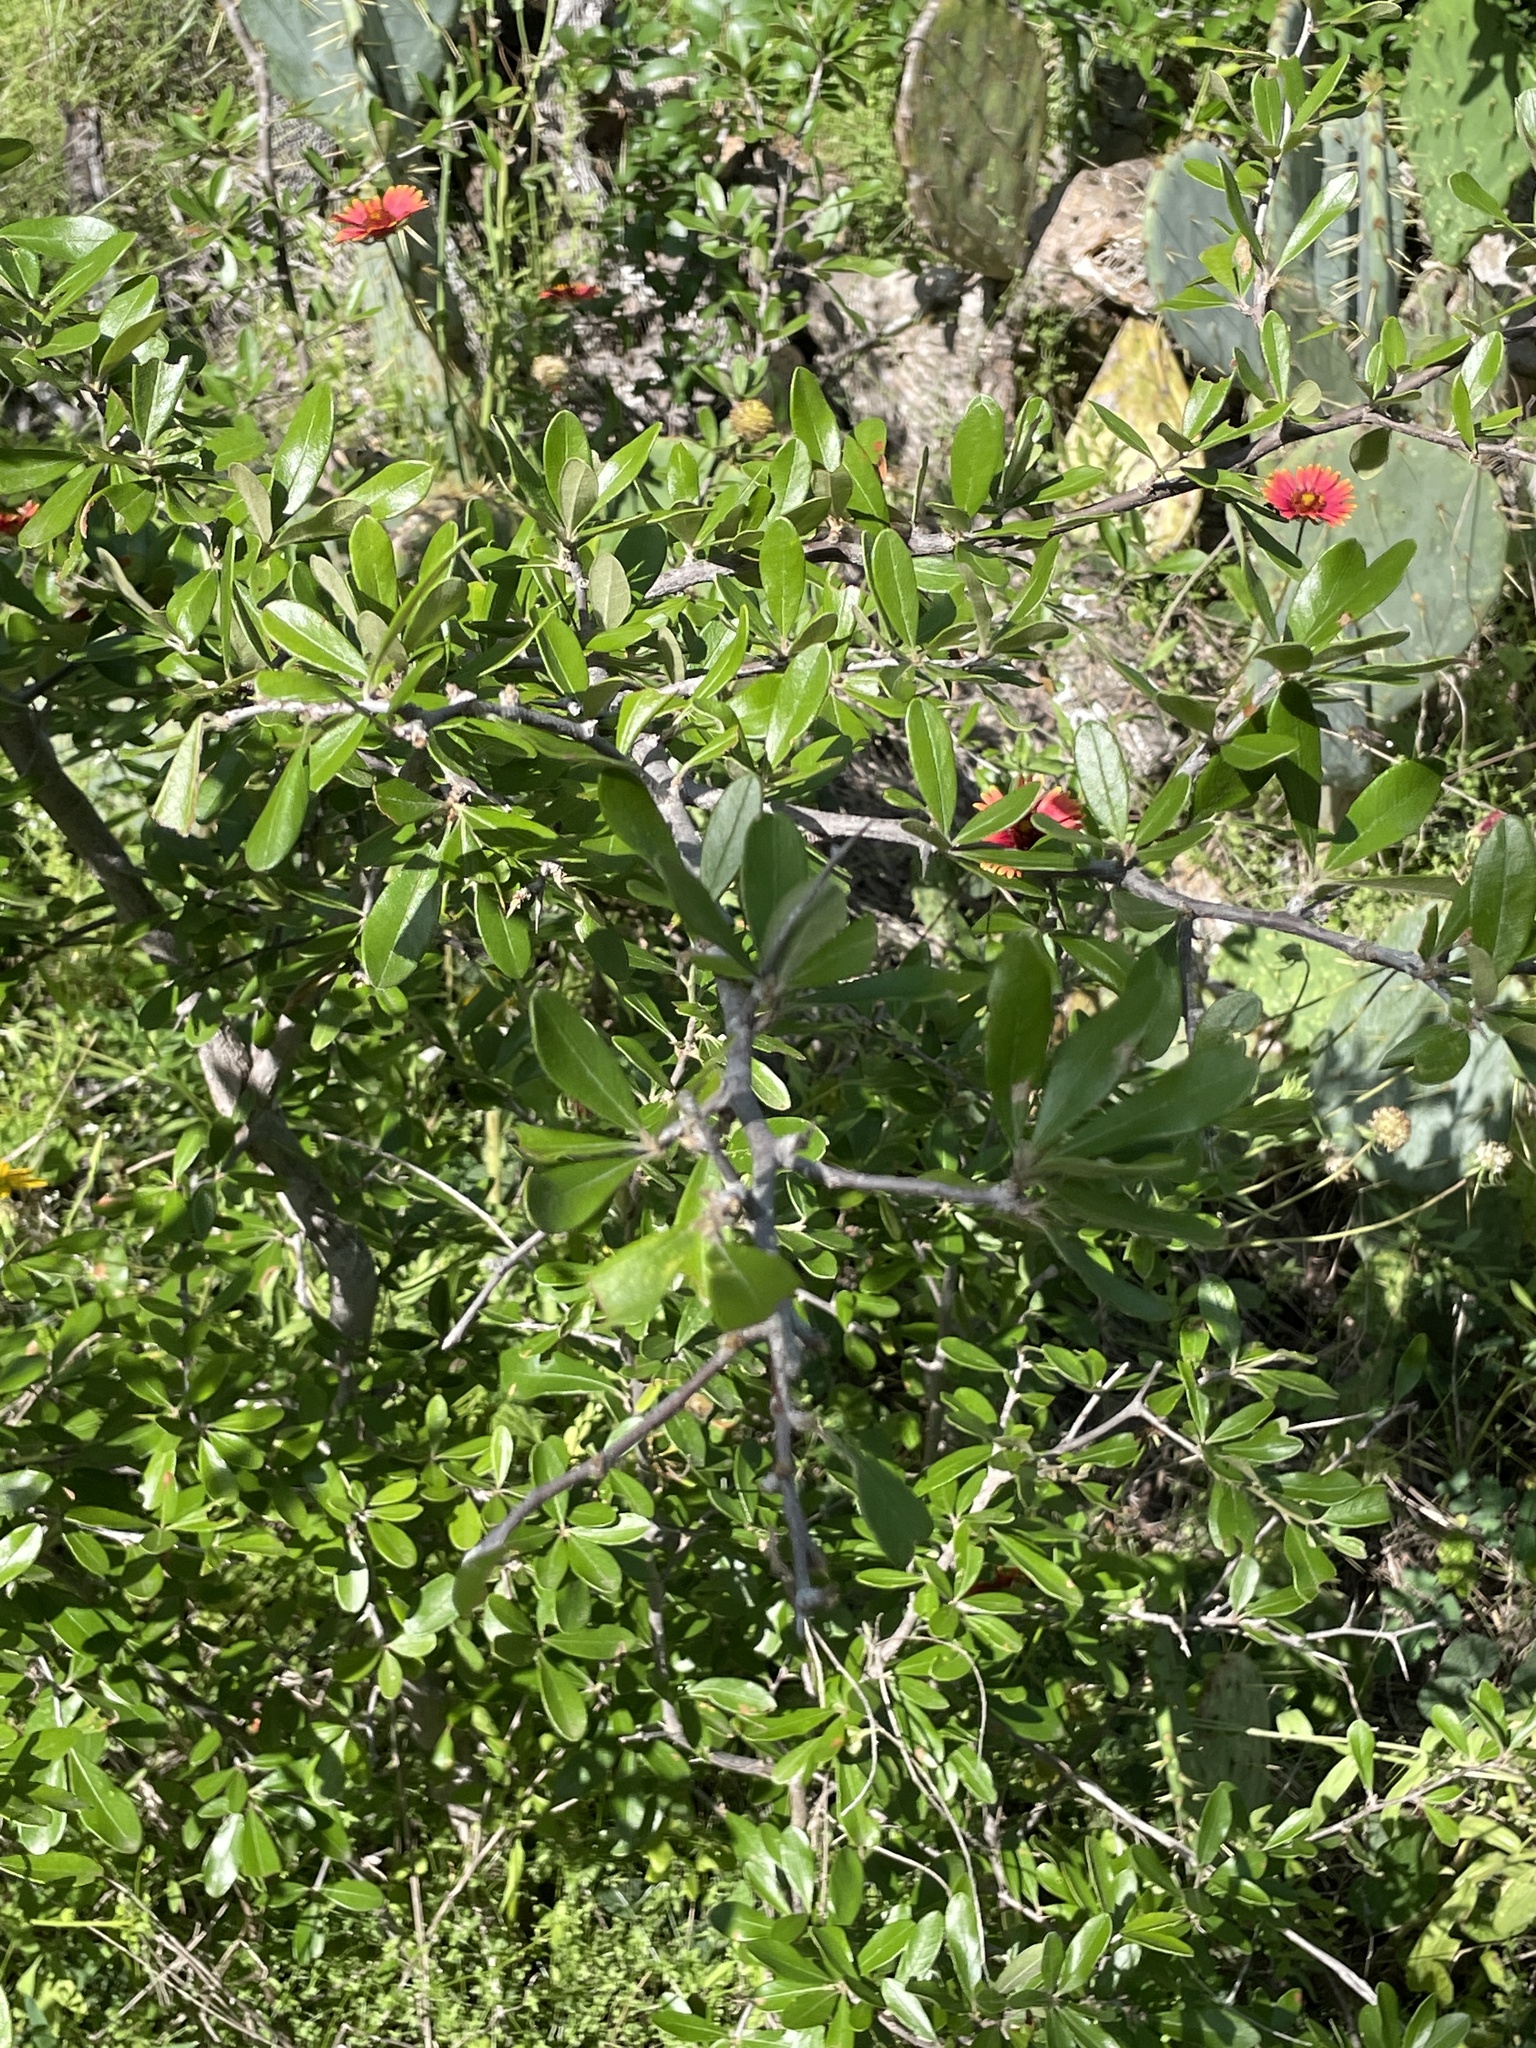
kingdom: Plantae
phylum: Tracheophyta
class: Magnoliopsida
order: Ericales
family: Sapotaceae
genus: Sideroxylon
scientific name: Sideroxylon lanuginosum
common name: Chittamwood
